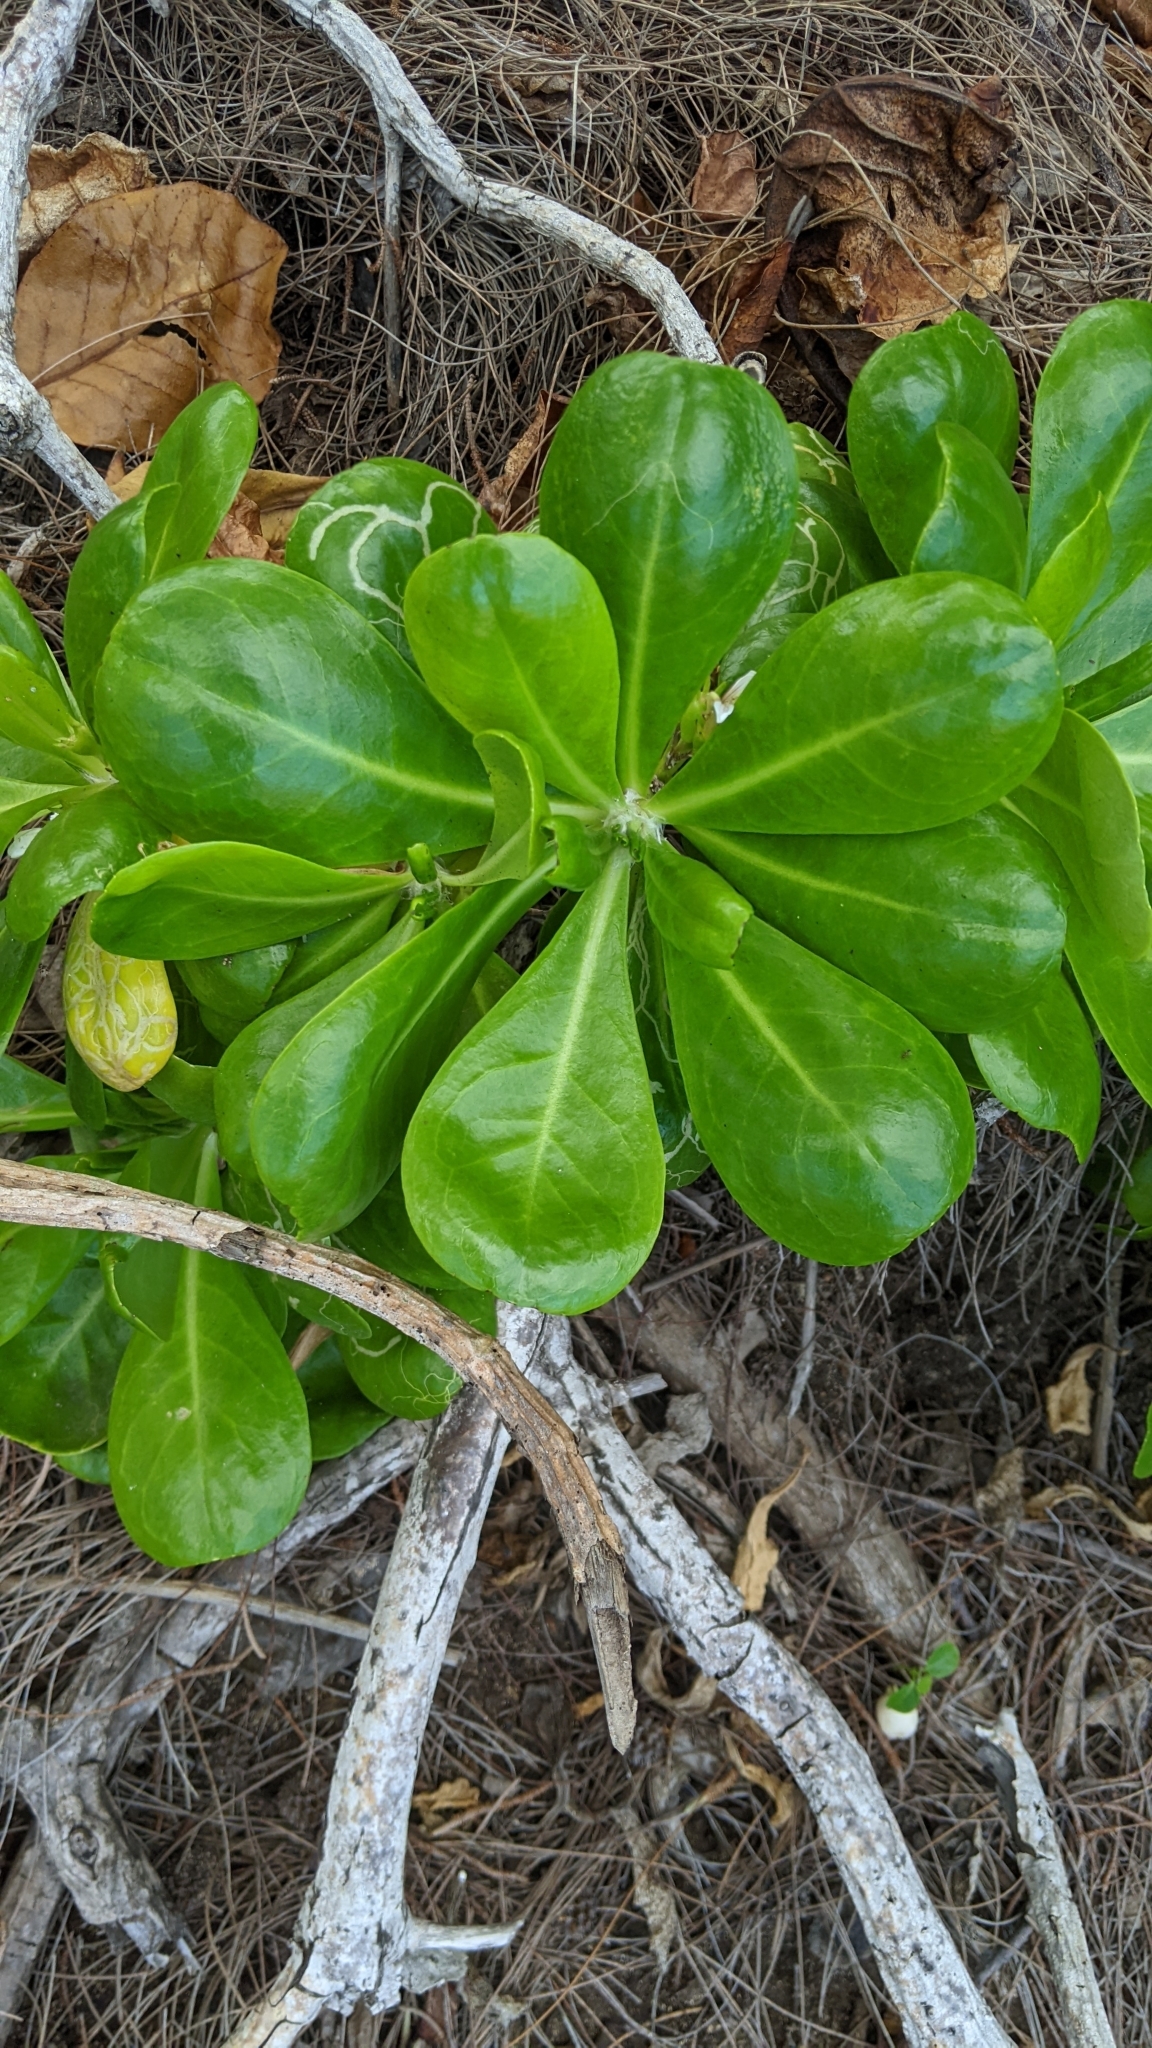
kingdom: Plantae
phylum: Tracheophyta
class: Magnoliopsida
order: Asterales
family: Goodeniaceae
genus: Scaevola
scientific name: Scaevola taccada
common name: Sea lettucetree
